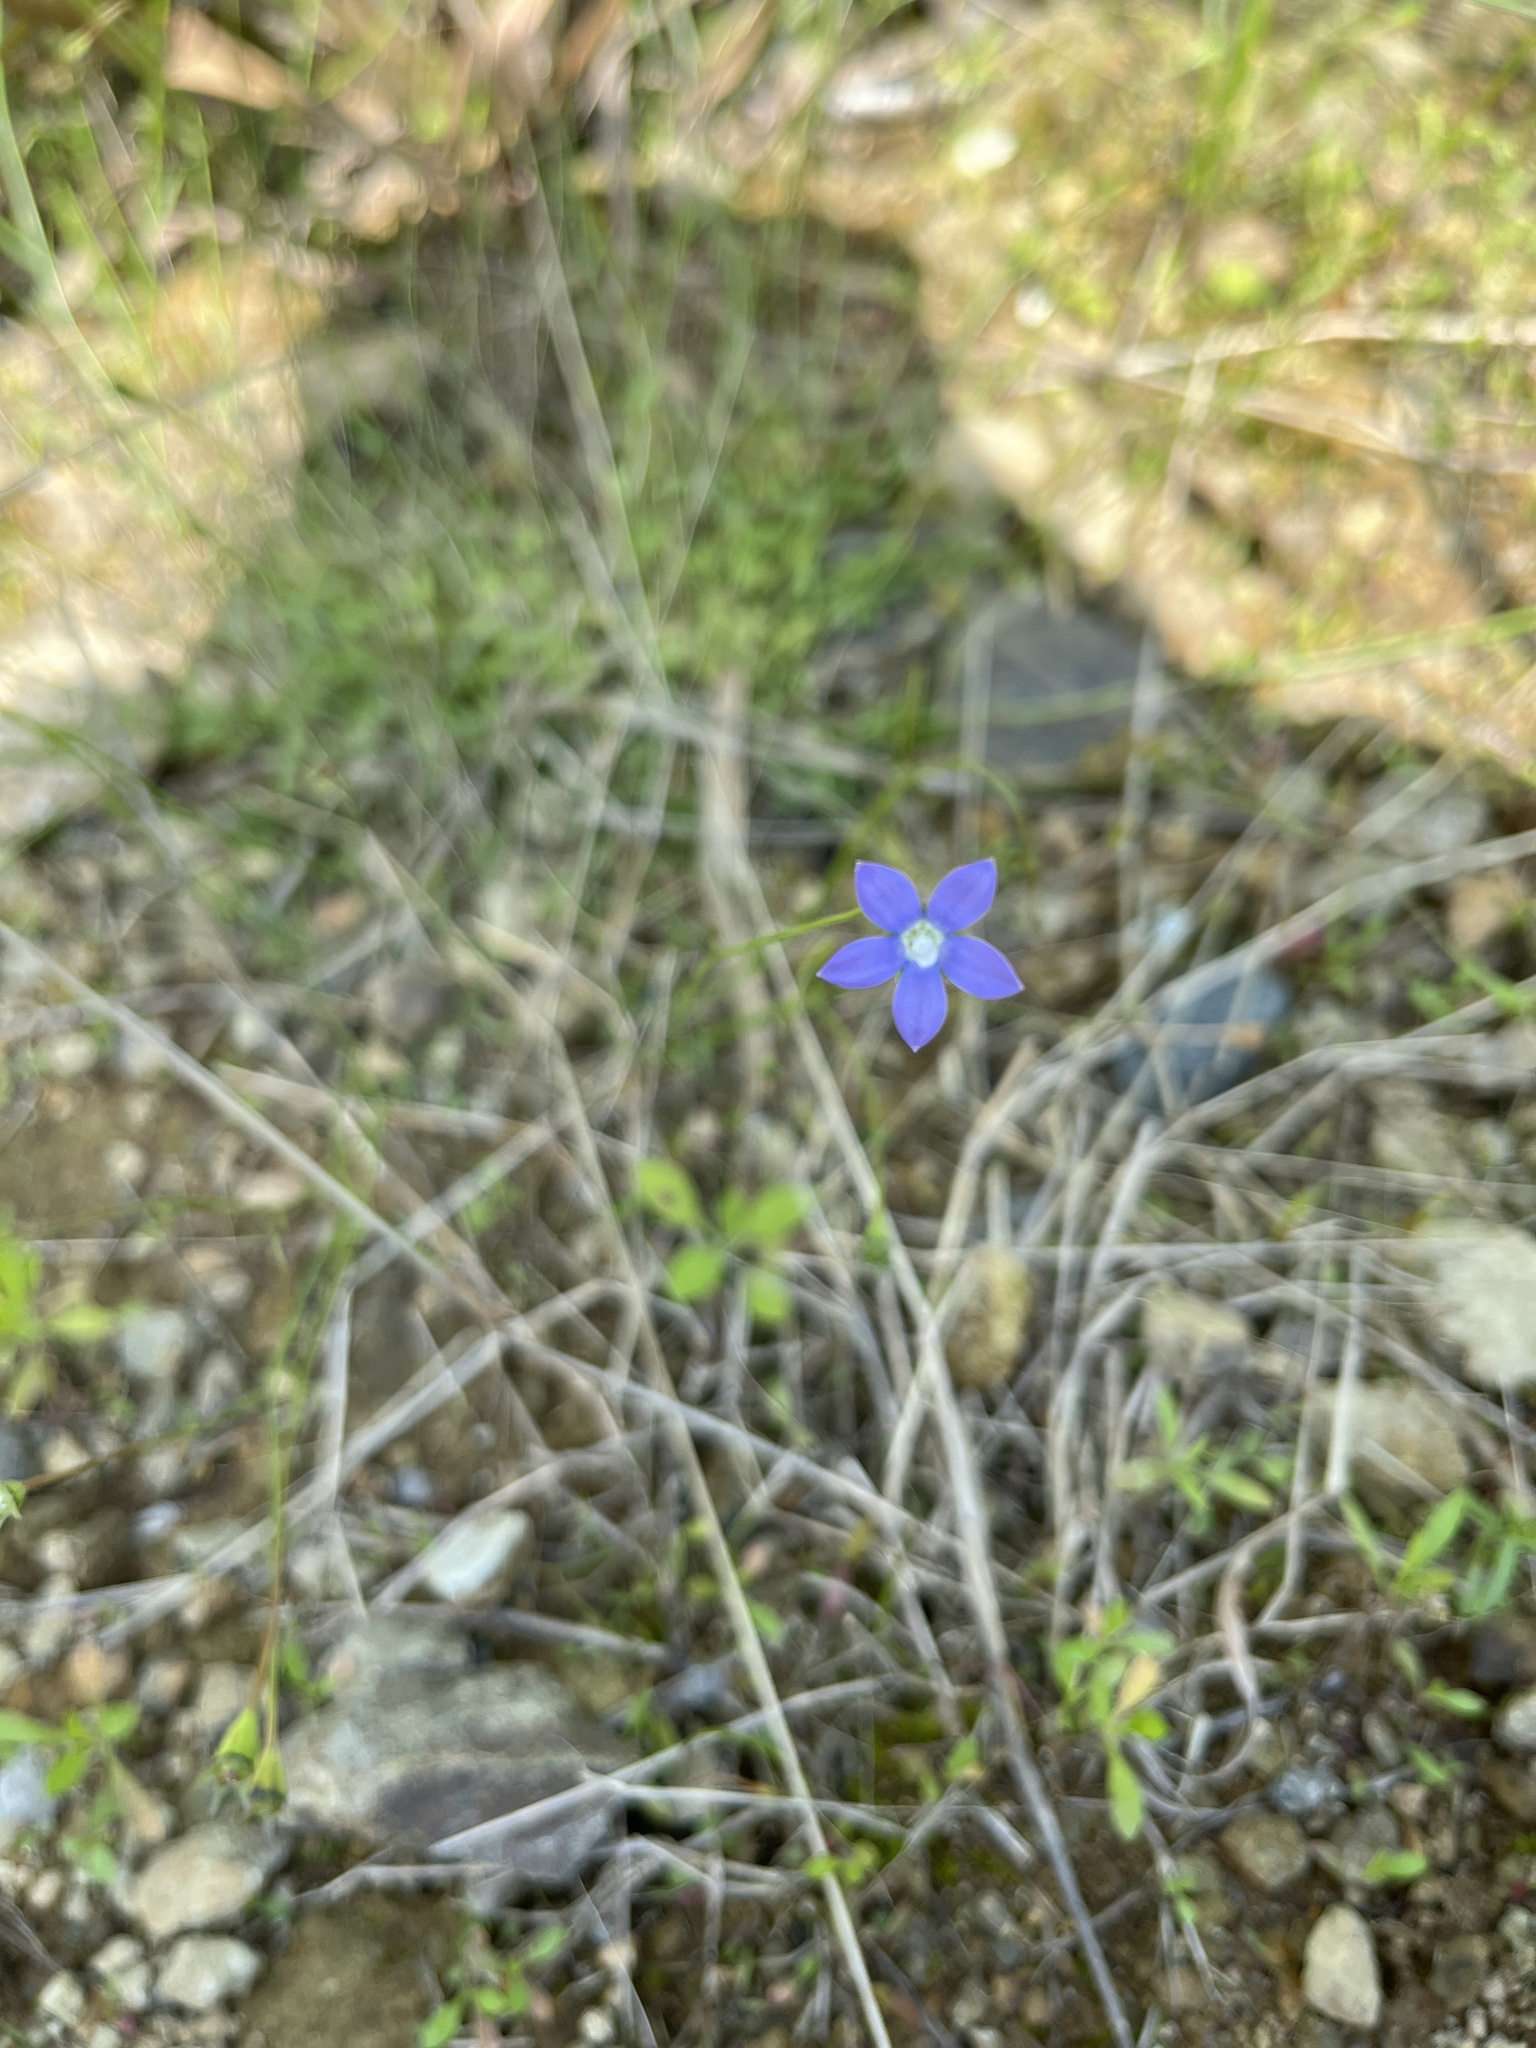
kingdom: Plantae
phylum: Tracheophyta
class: Magnoliopsida
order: Asterales
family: Campanulaceae
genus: Wahlenbergia
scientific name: Wahlenbergia marginata
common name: Southern rockbell
